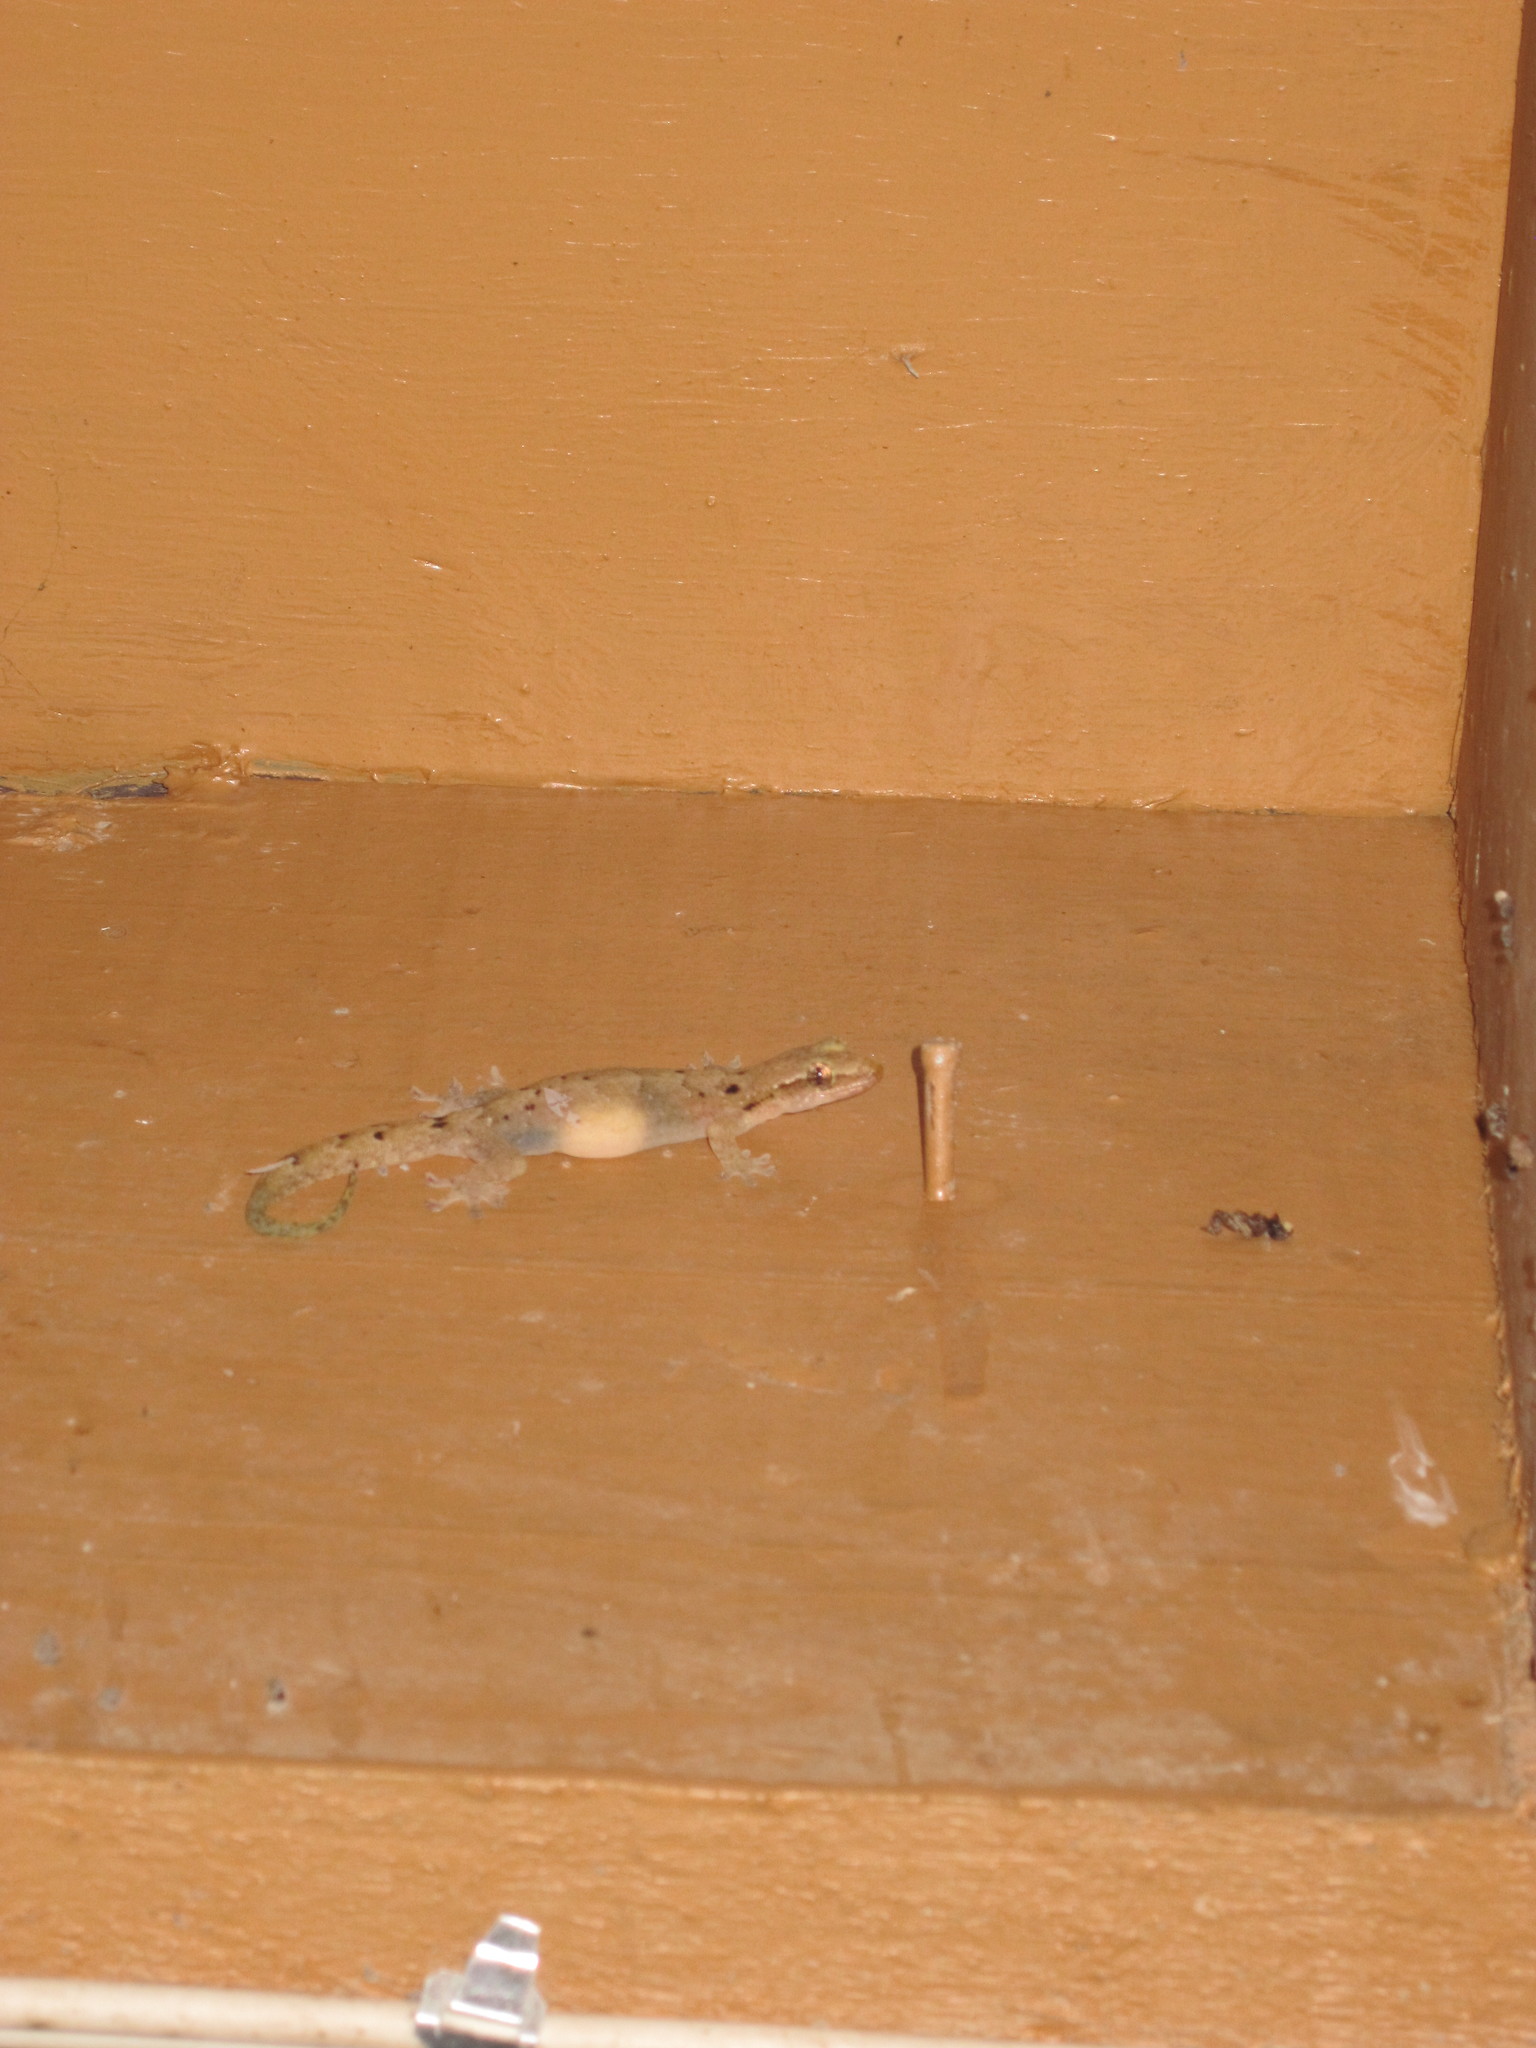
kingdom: Animalia
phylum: Chordata
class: Squamata
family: Gekkonidae
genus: Lepidodactylus
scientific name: Lepidodactylus lugubris
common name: Mourning gecko
